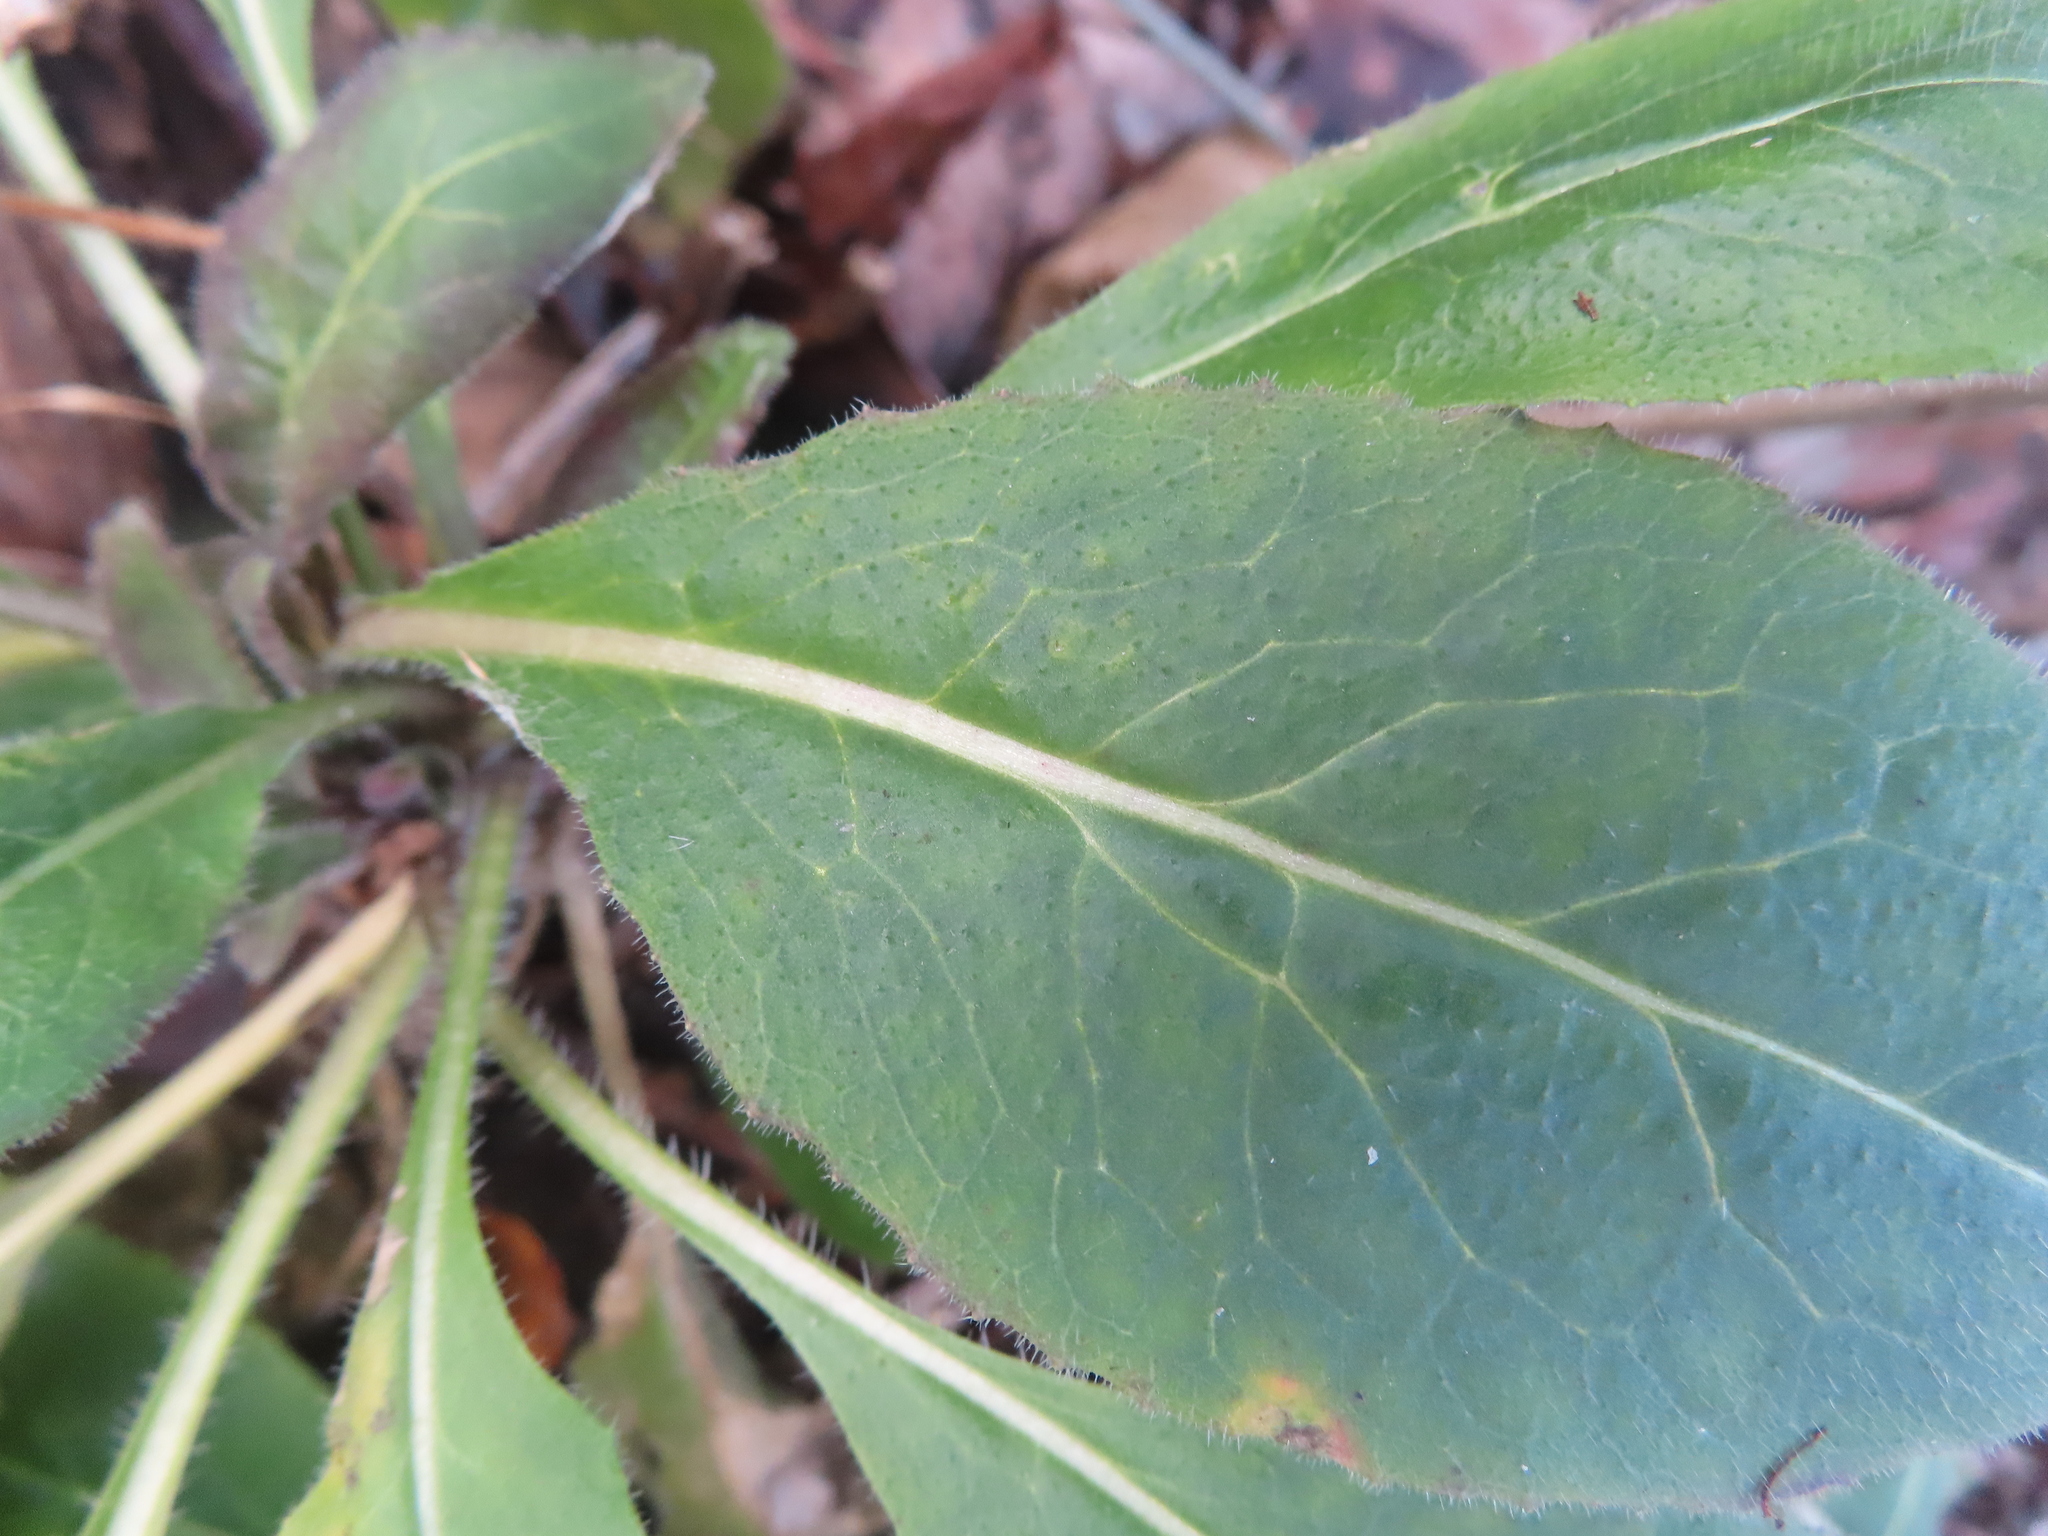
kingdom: Plantae
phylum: Tracheophyta
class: Magnoliopsida
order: Brassicales
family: Brassicaceae
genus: Hesperis
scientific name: Hesperis matronalis
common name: Dame's-violet
